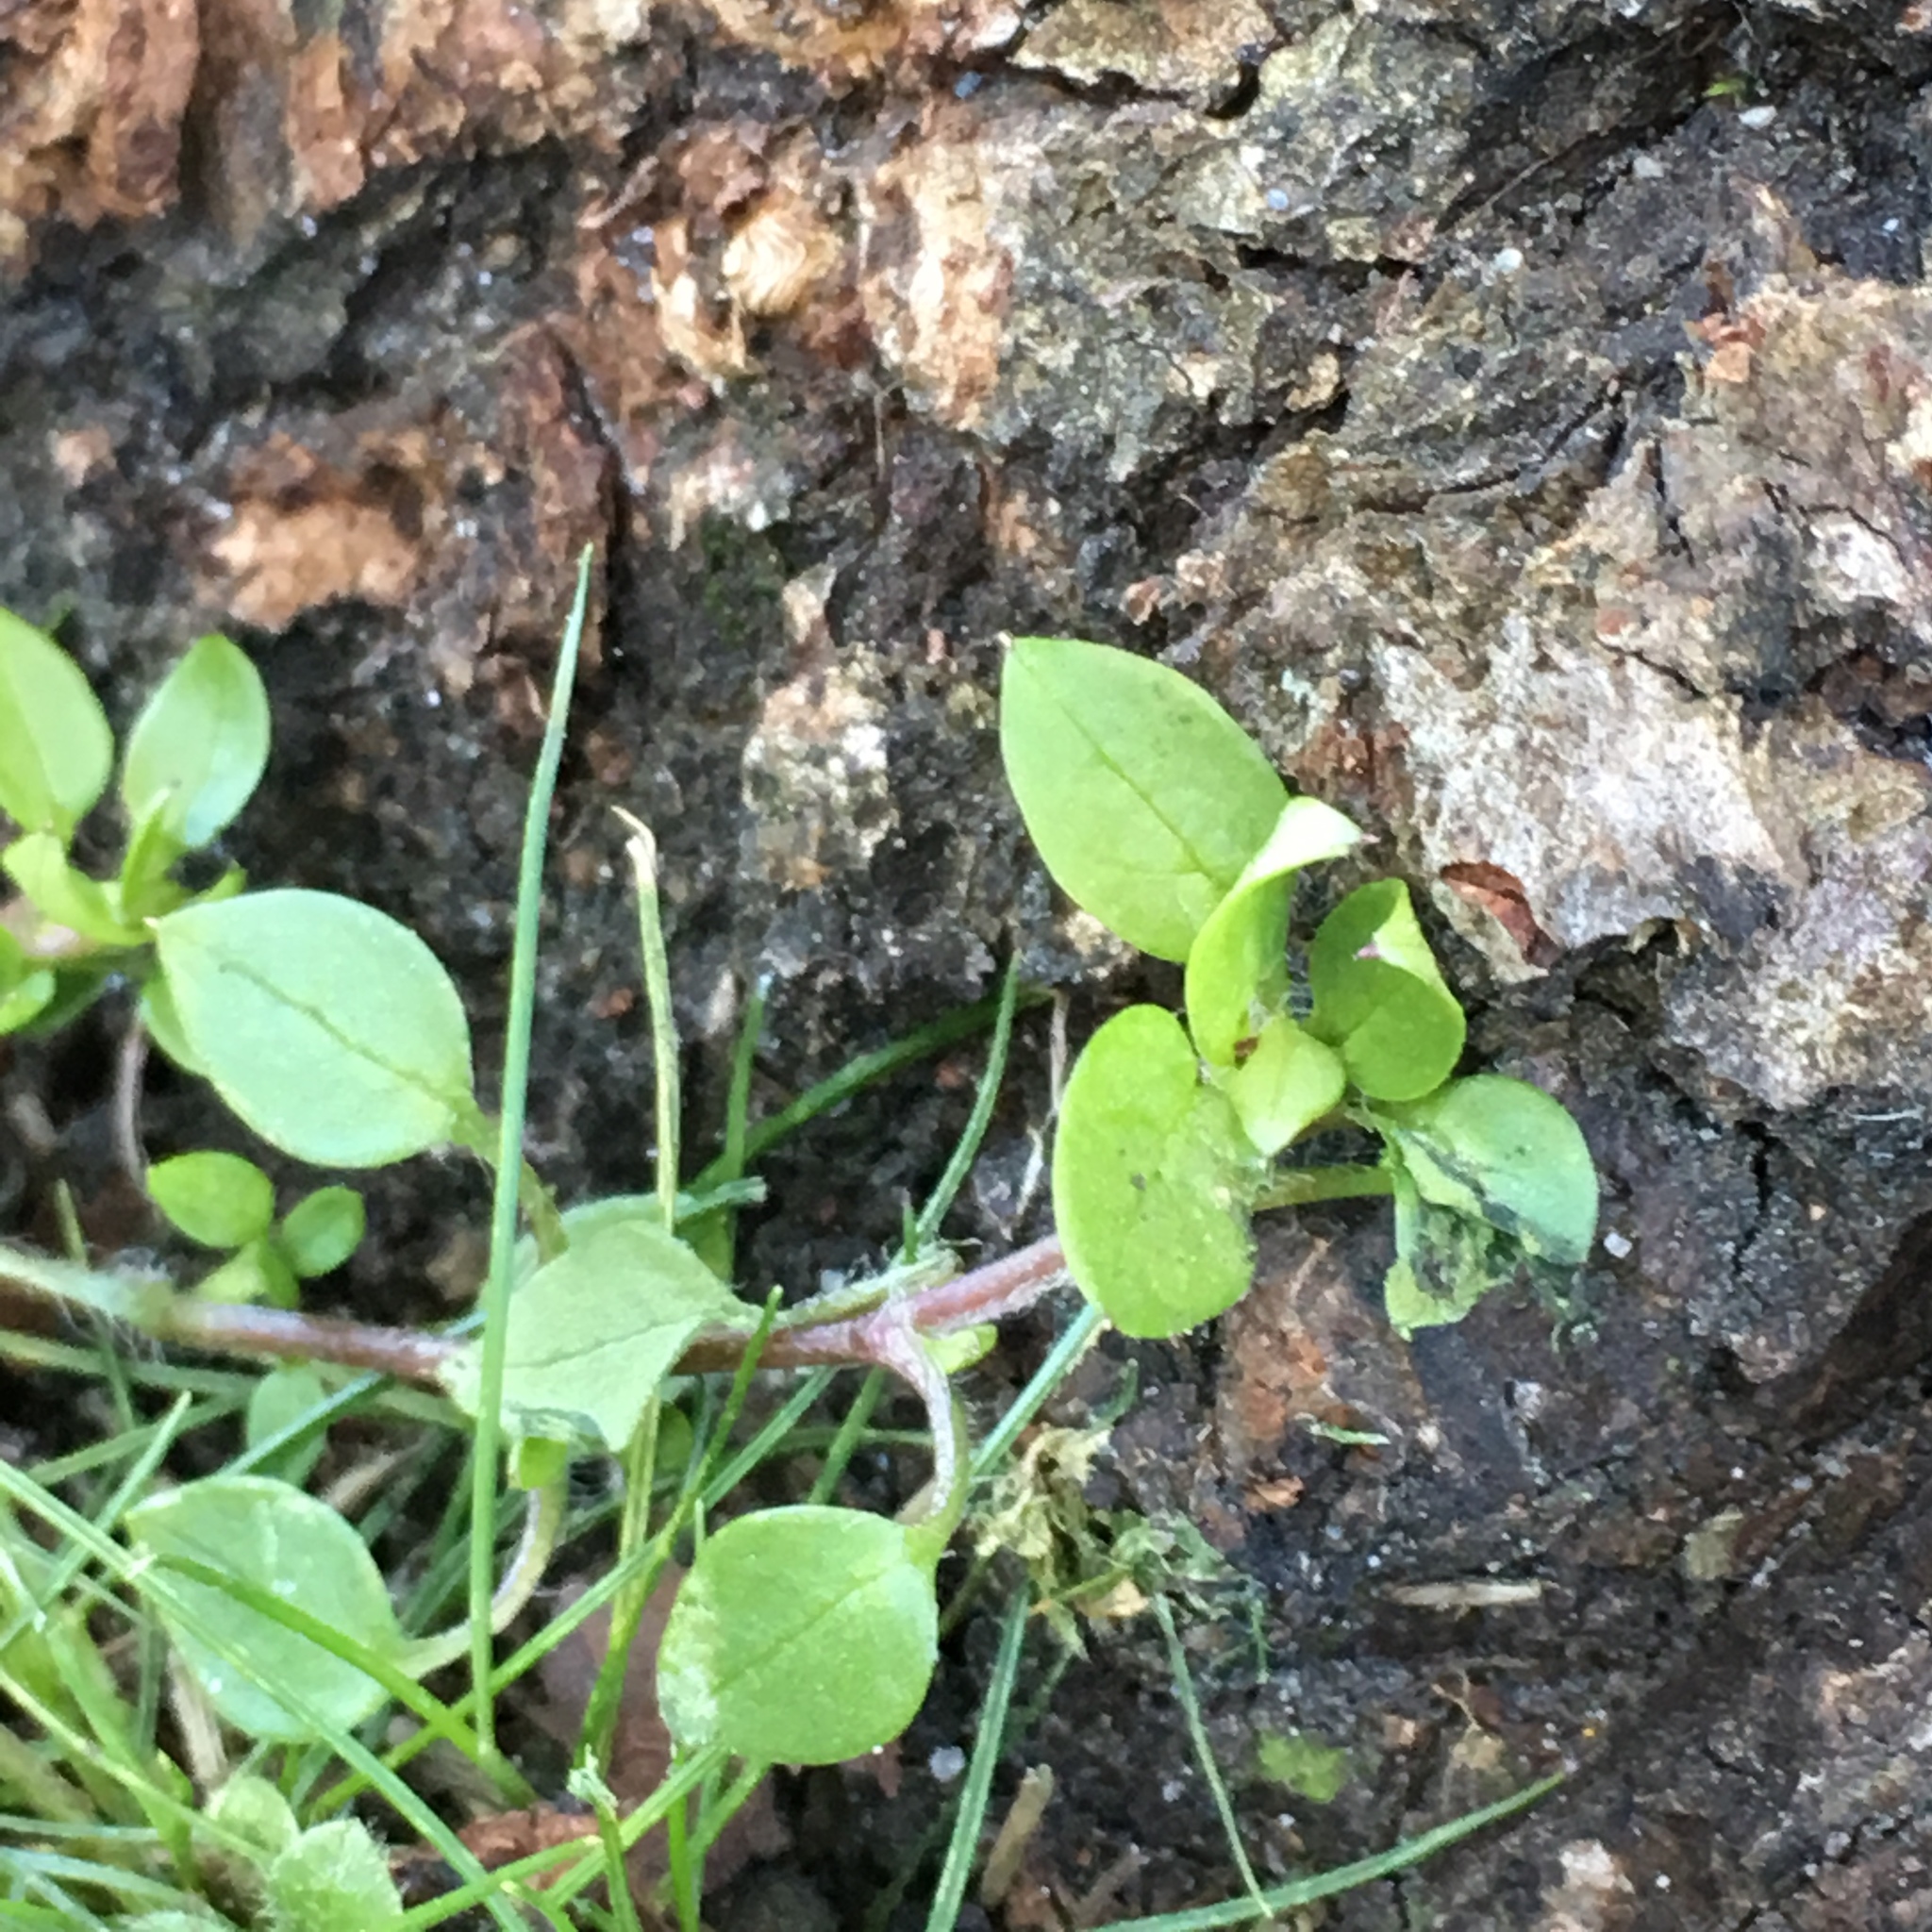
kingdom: Plantae
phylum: Tracheophyta
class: Magnoliopsida
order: Caryophyllales
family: Caryophyllaceae
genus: Stellaria
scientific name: Stellaria media
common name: Common chickweed
